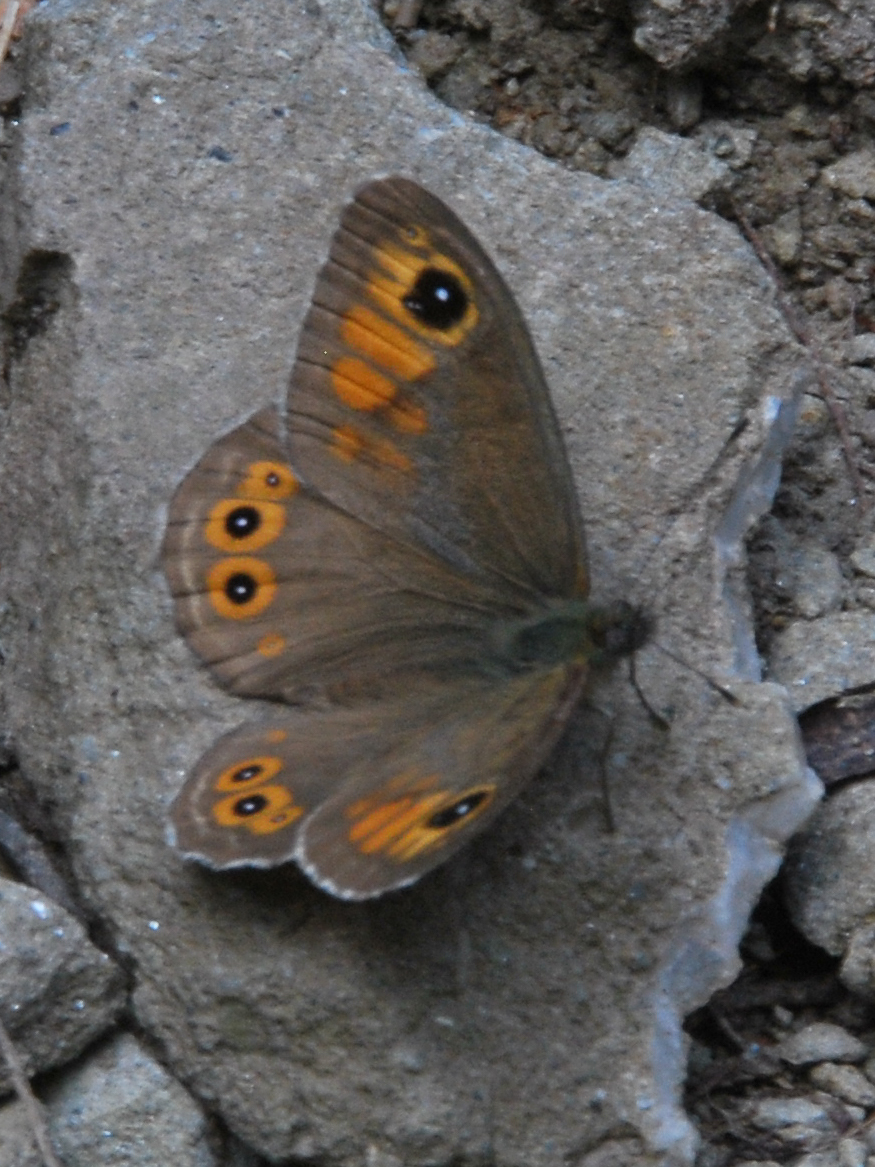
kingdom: Animalia
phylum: Arthropoda
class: Insecta
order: Lepidoptera
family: Nymphalidae
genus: Pararge
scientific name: Pararge Lasiommata maera
